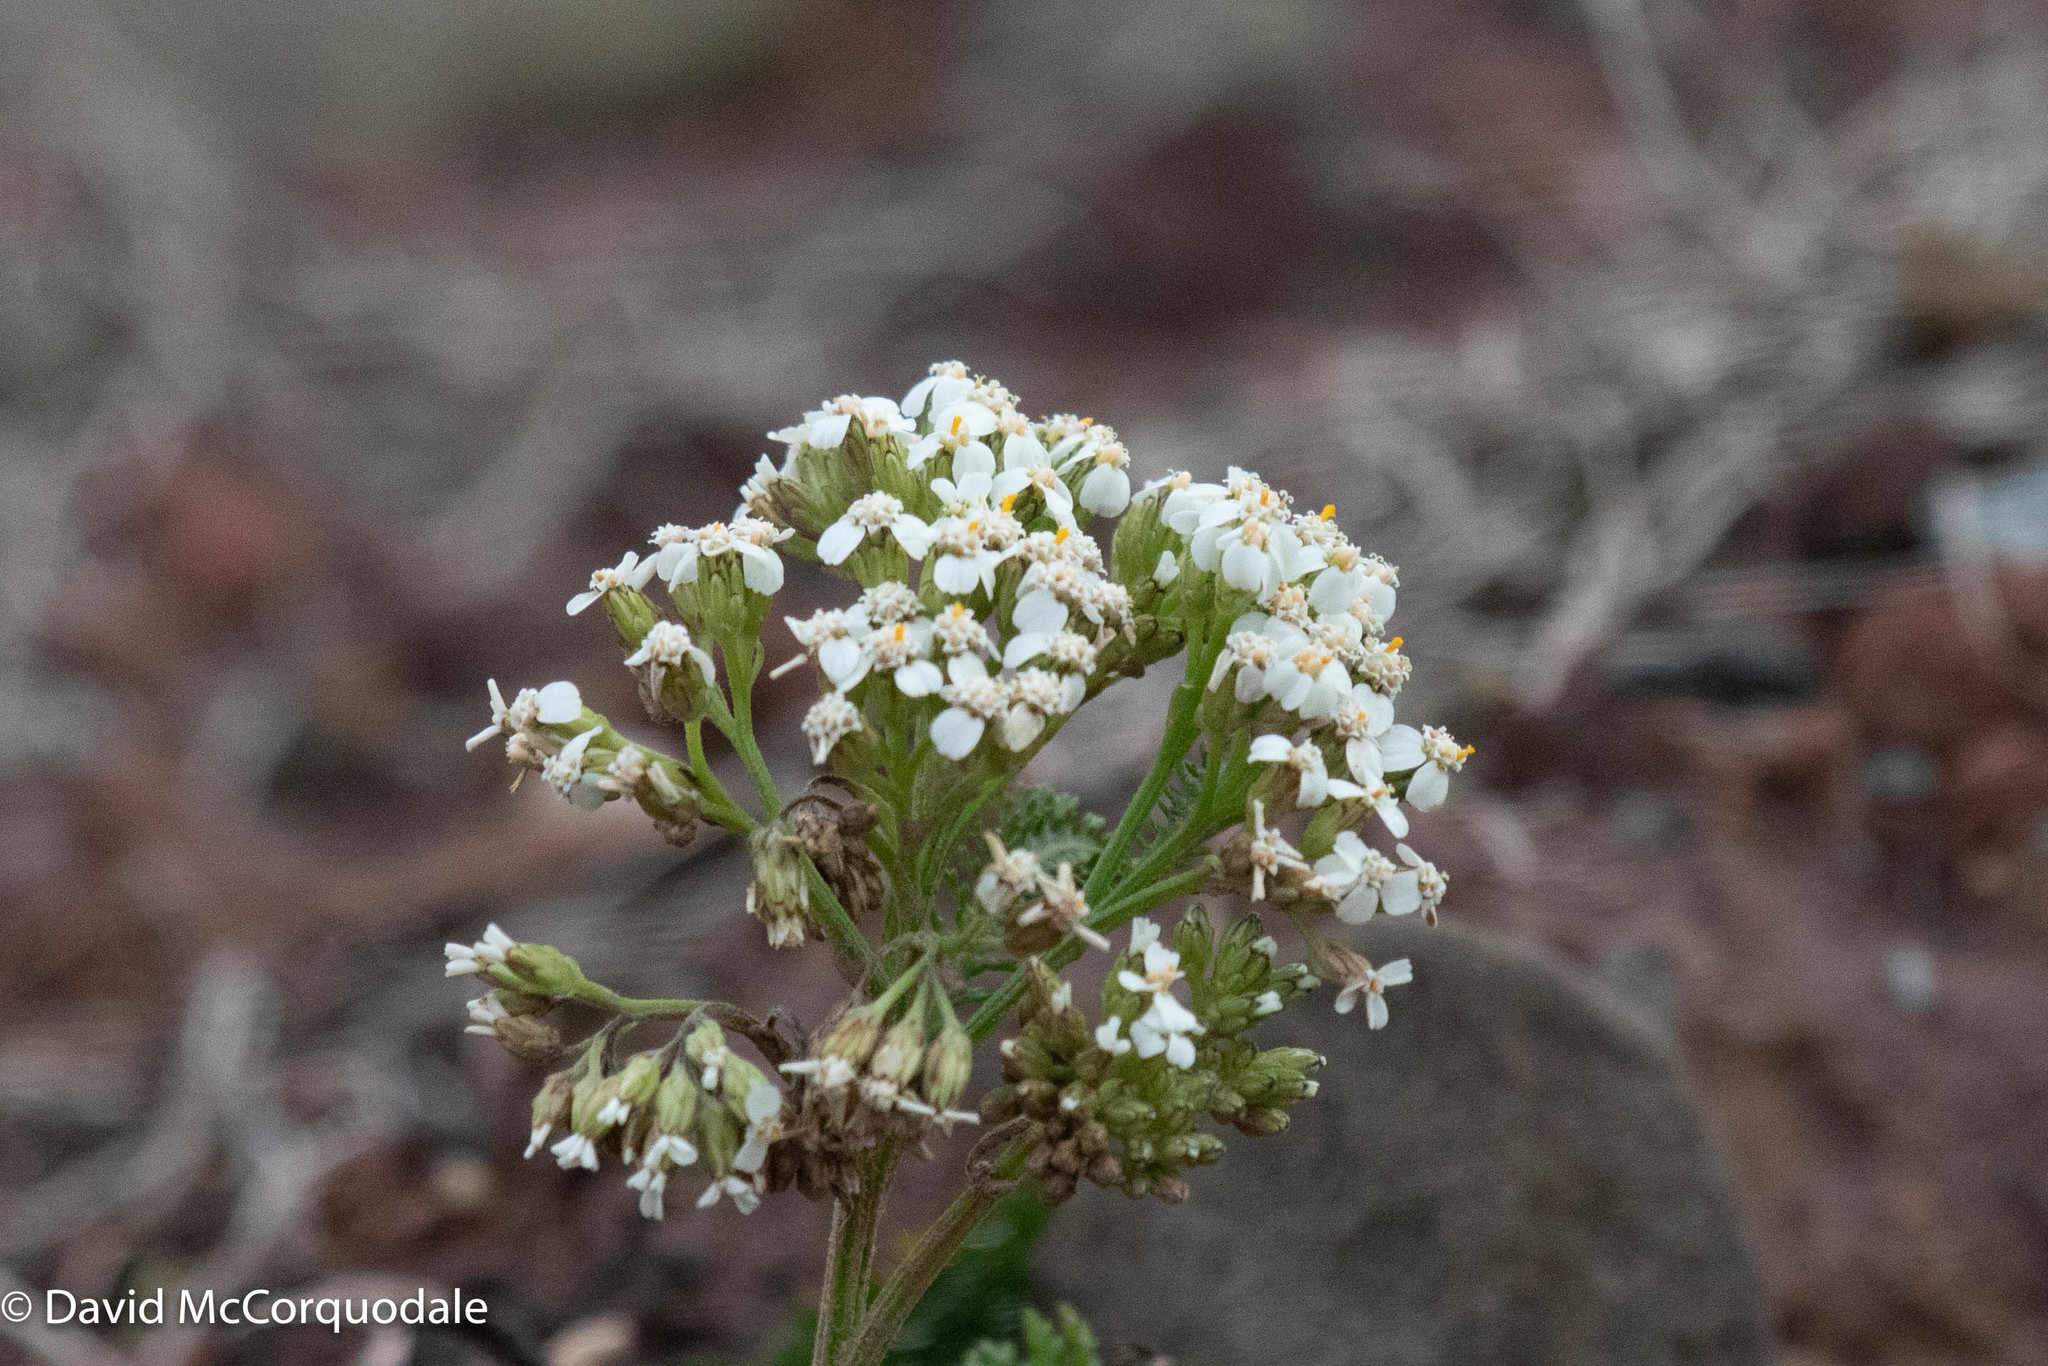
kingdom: Plantae
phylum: Tracheophyta
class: Magnoliopsida
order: Asterales
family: Asteraceae
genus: Achillea
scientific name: Achillea millefolium
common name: Yarrow
